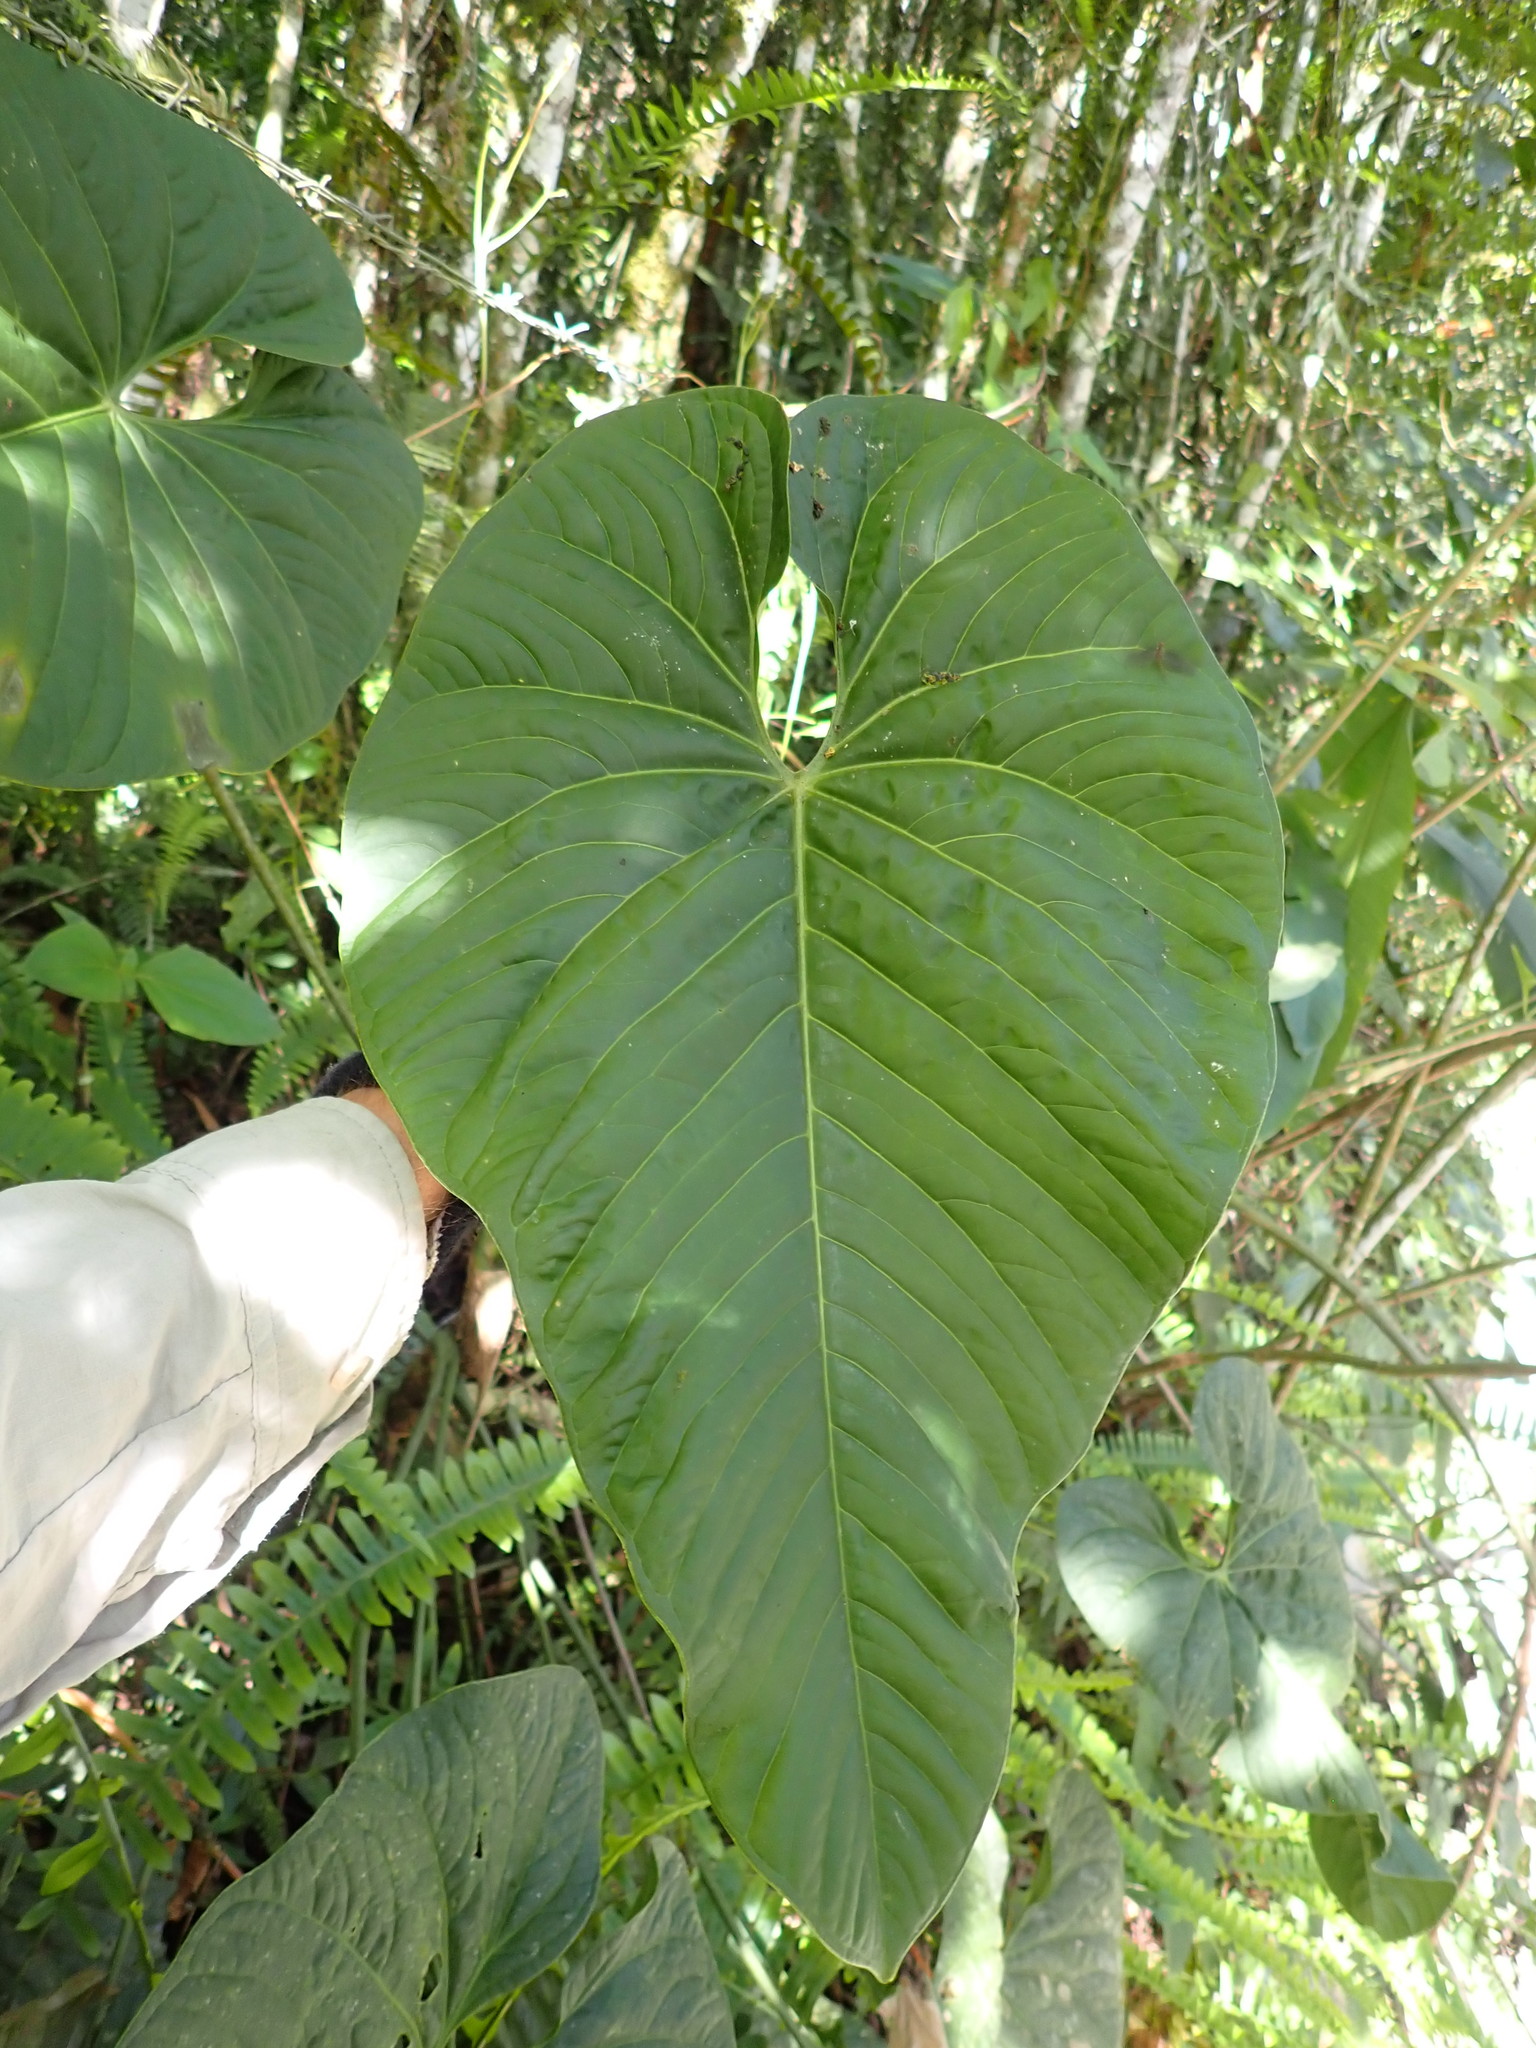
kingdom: Plantae
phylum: Tracheophyta
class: Liliopsida
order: Alismatales
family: Araceae
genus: Anthurium
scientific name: Anthurium coripatense
